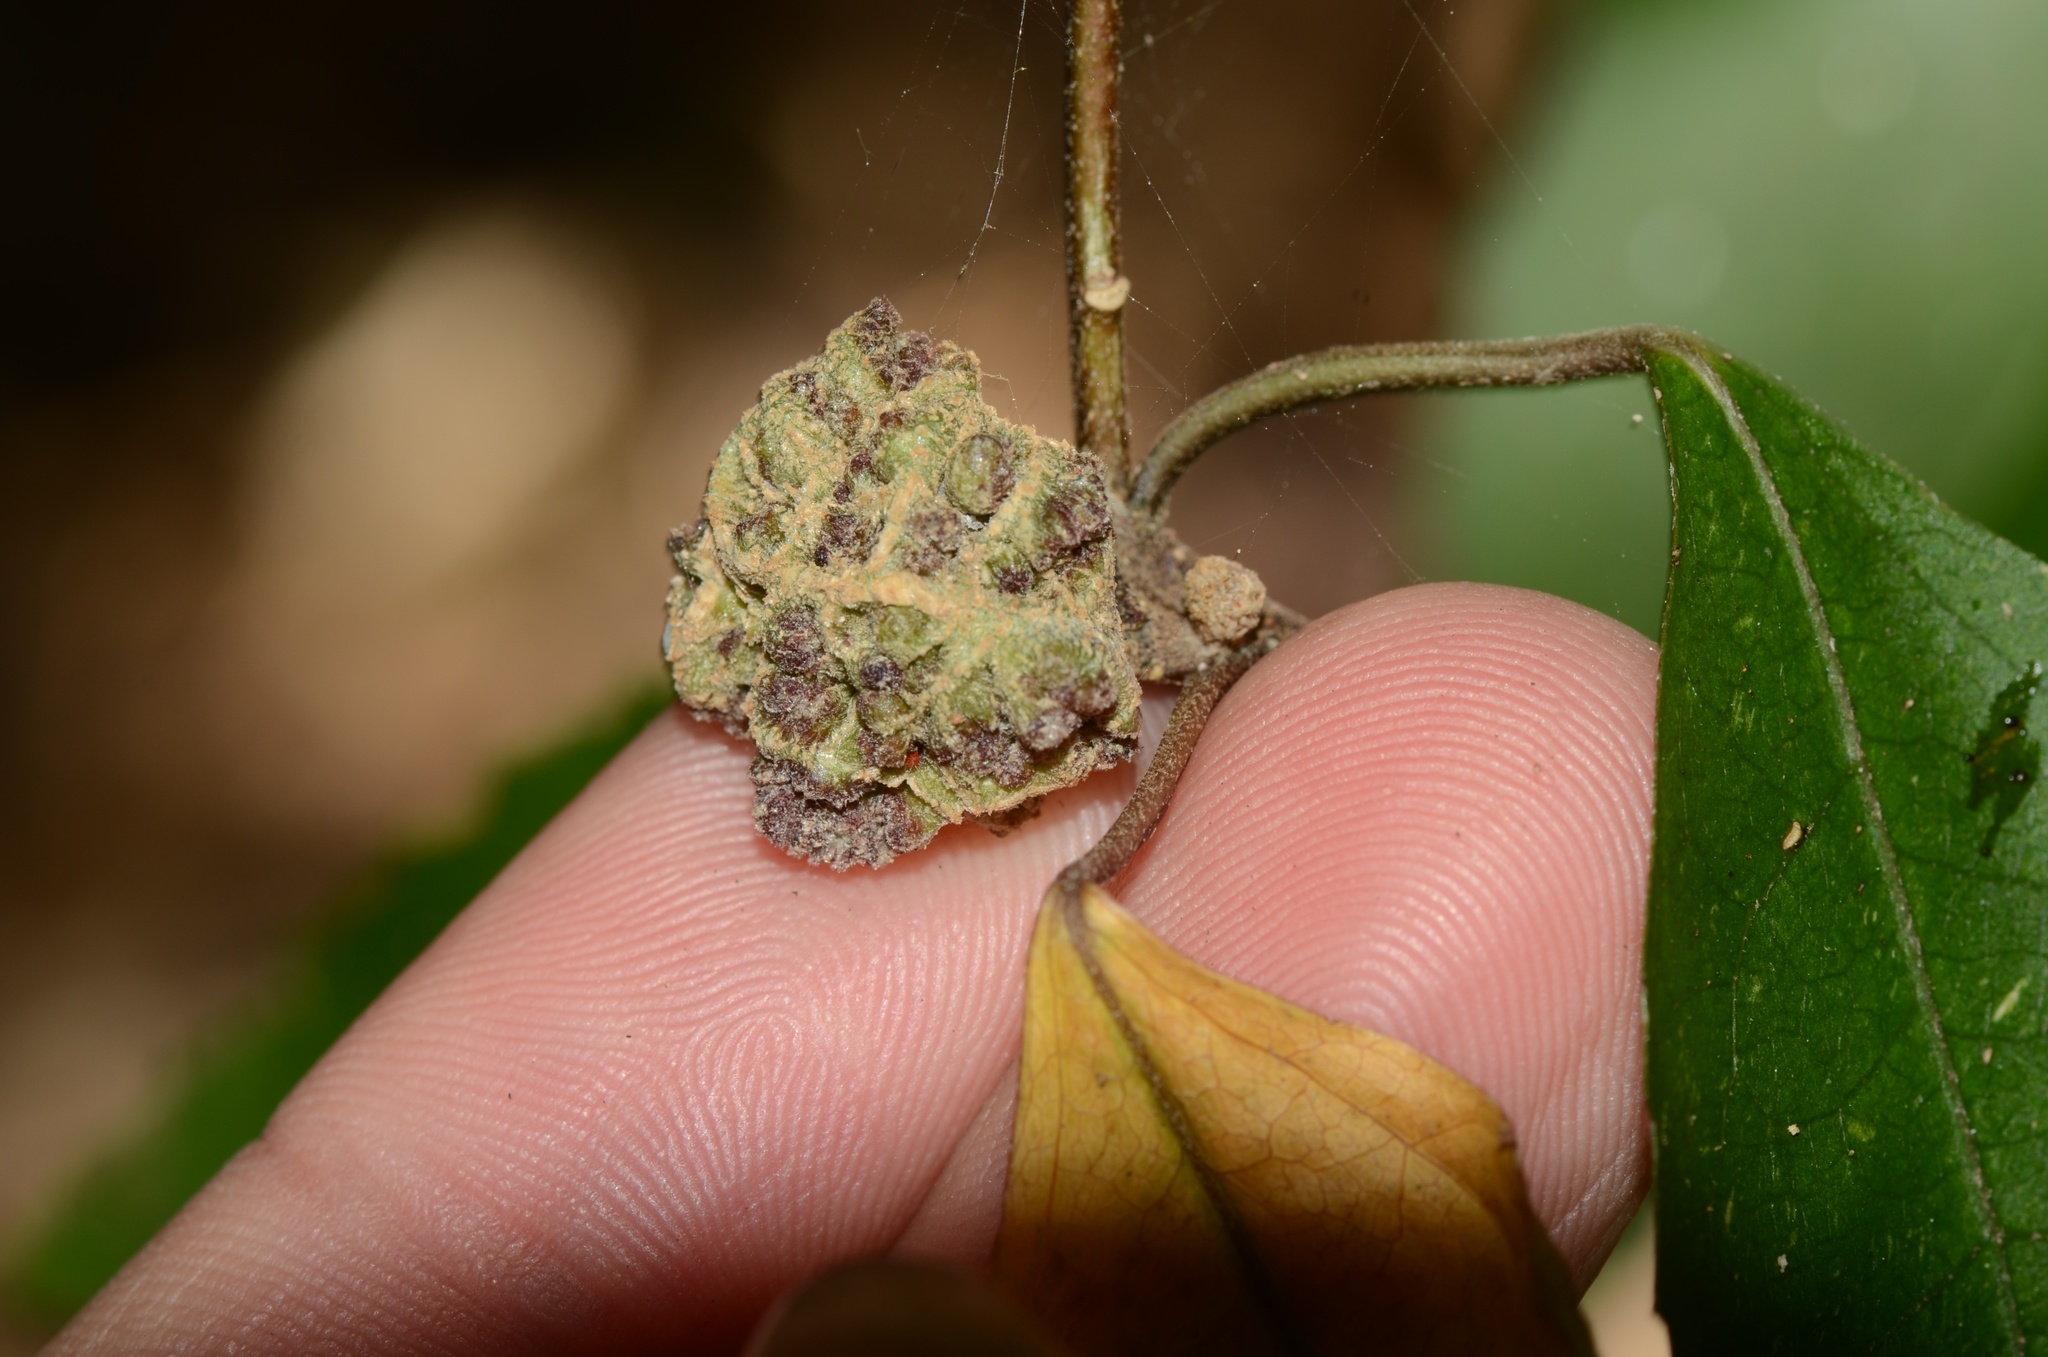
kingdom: Animalia
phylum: Arthropoda
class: Arachnida
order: Trombidiformes
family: Eriophyidae
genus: Eriophyes
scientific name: Eriophyes hoheriae
